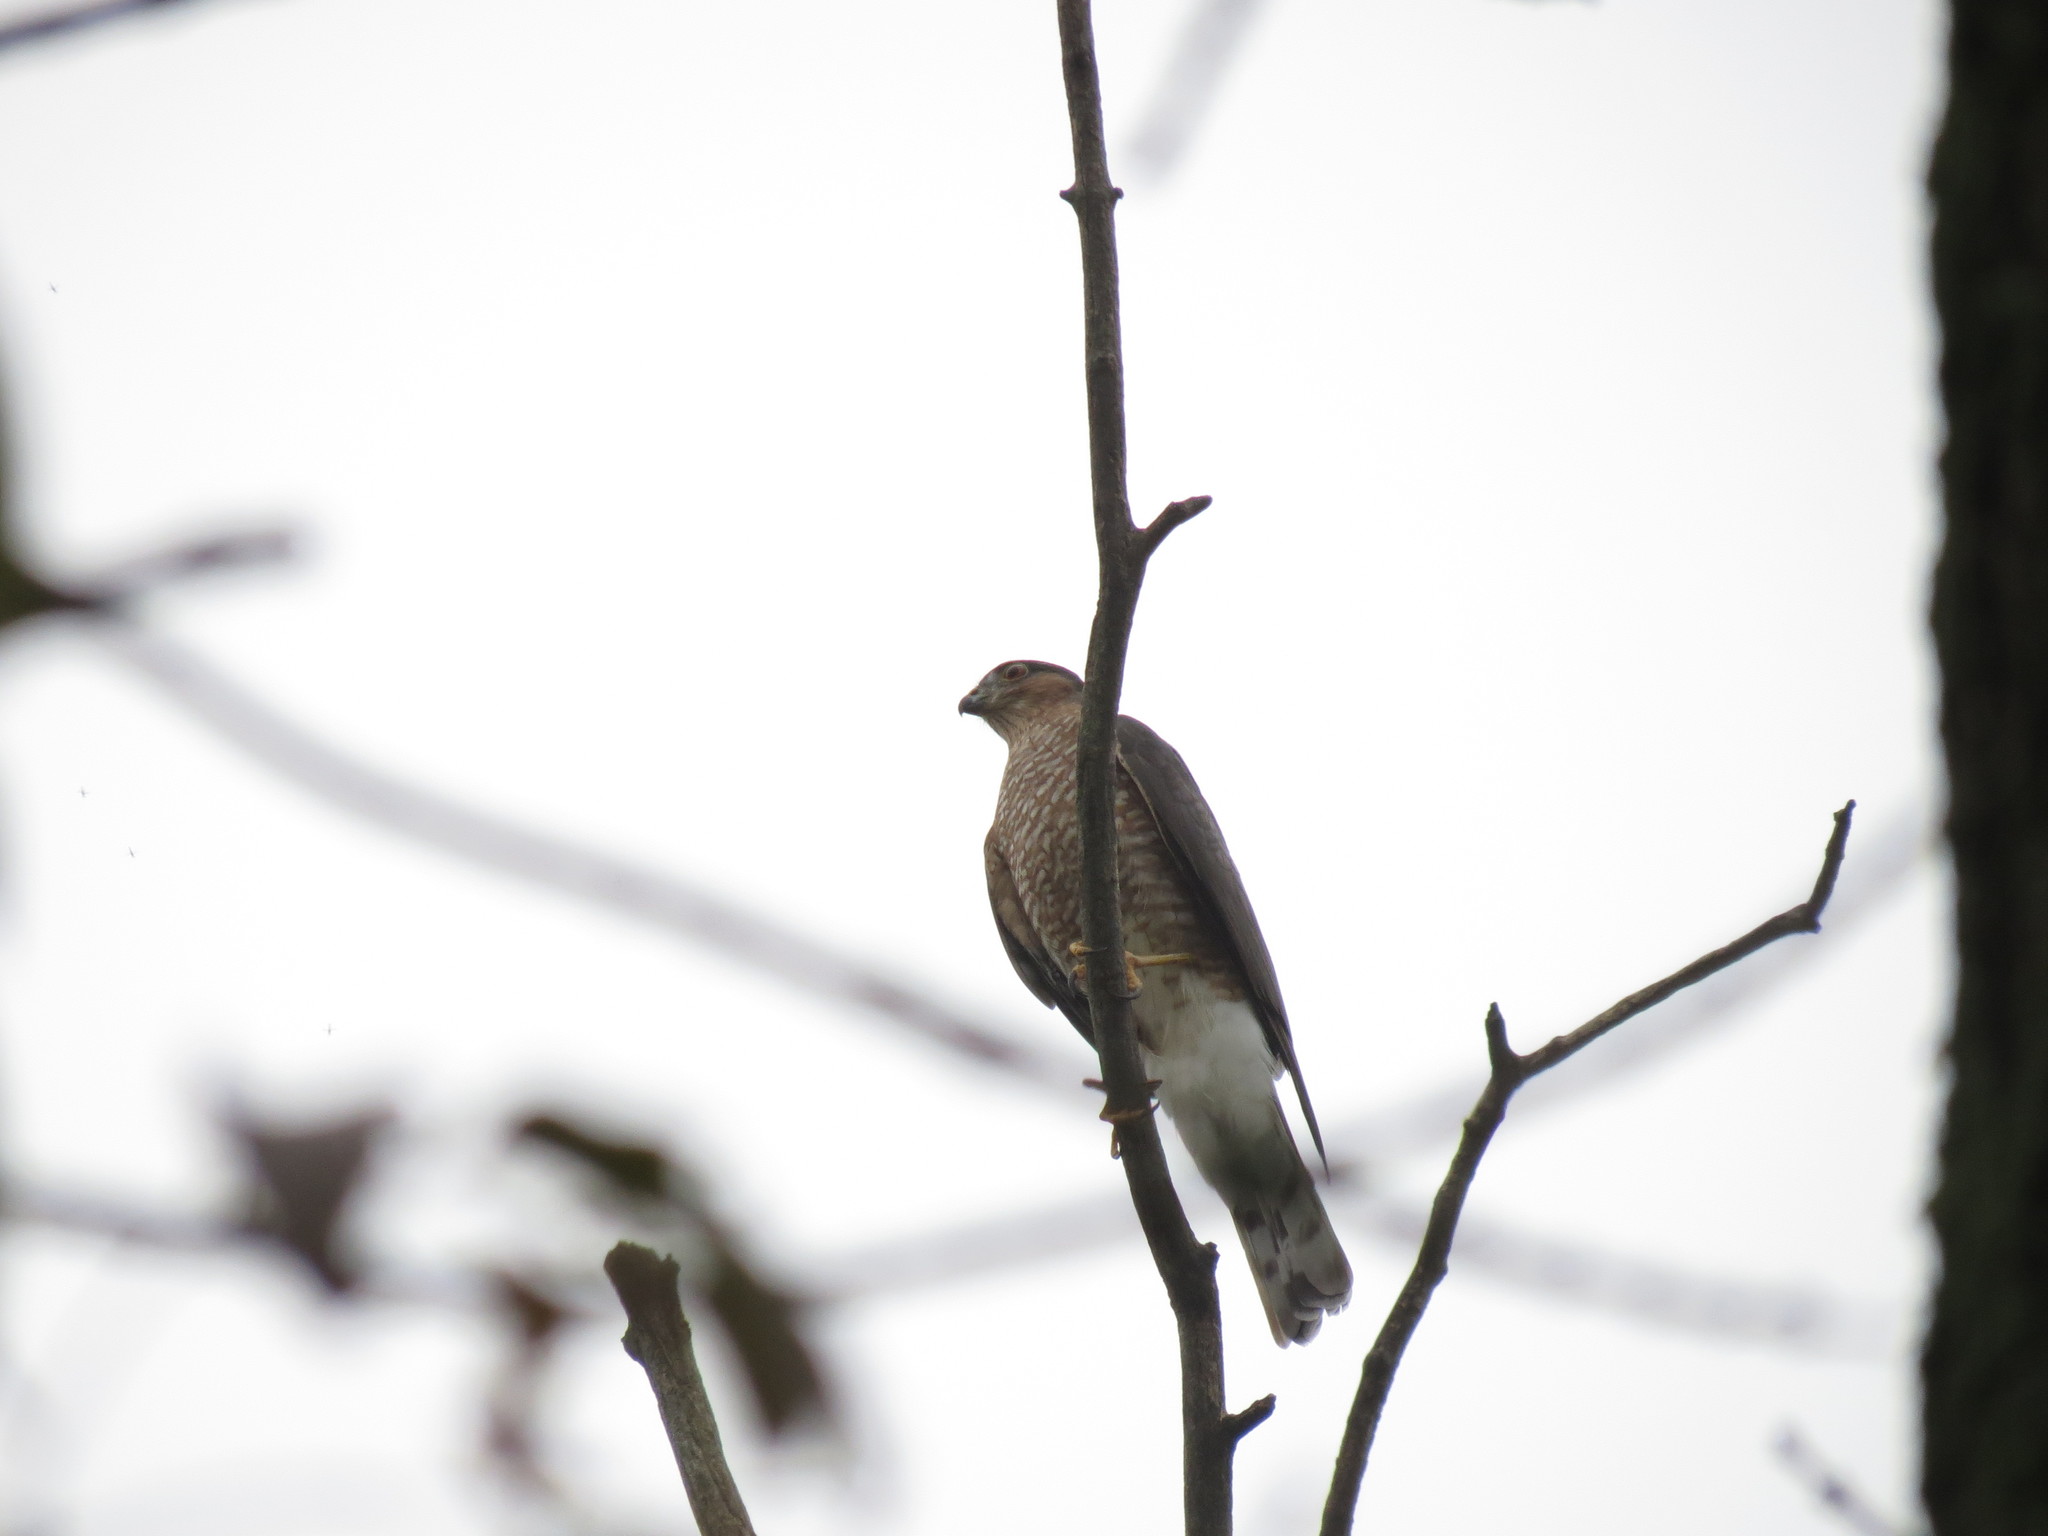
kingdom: Animalia
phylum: Chordata
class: Aves
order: Accipitriformes
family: Accipitridae
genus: Accipiter
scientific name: Accipiter striatus
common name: Sharp-shinned hawk
